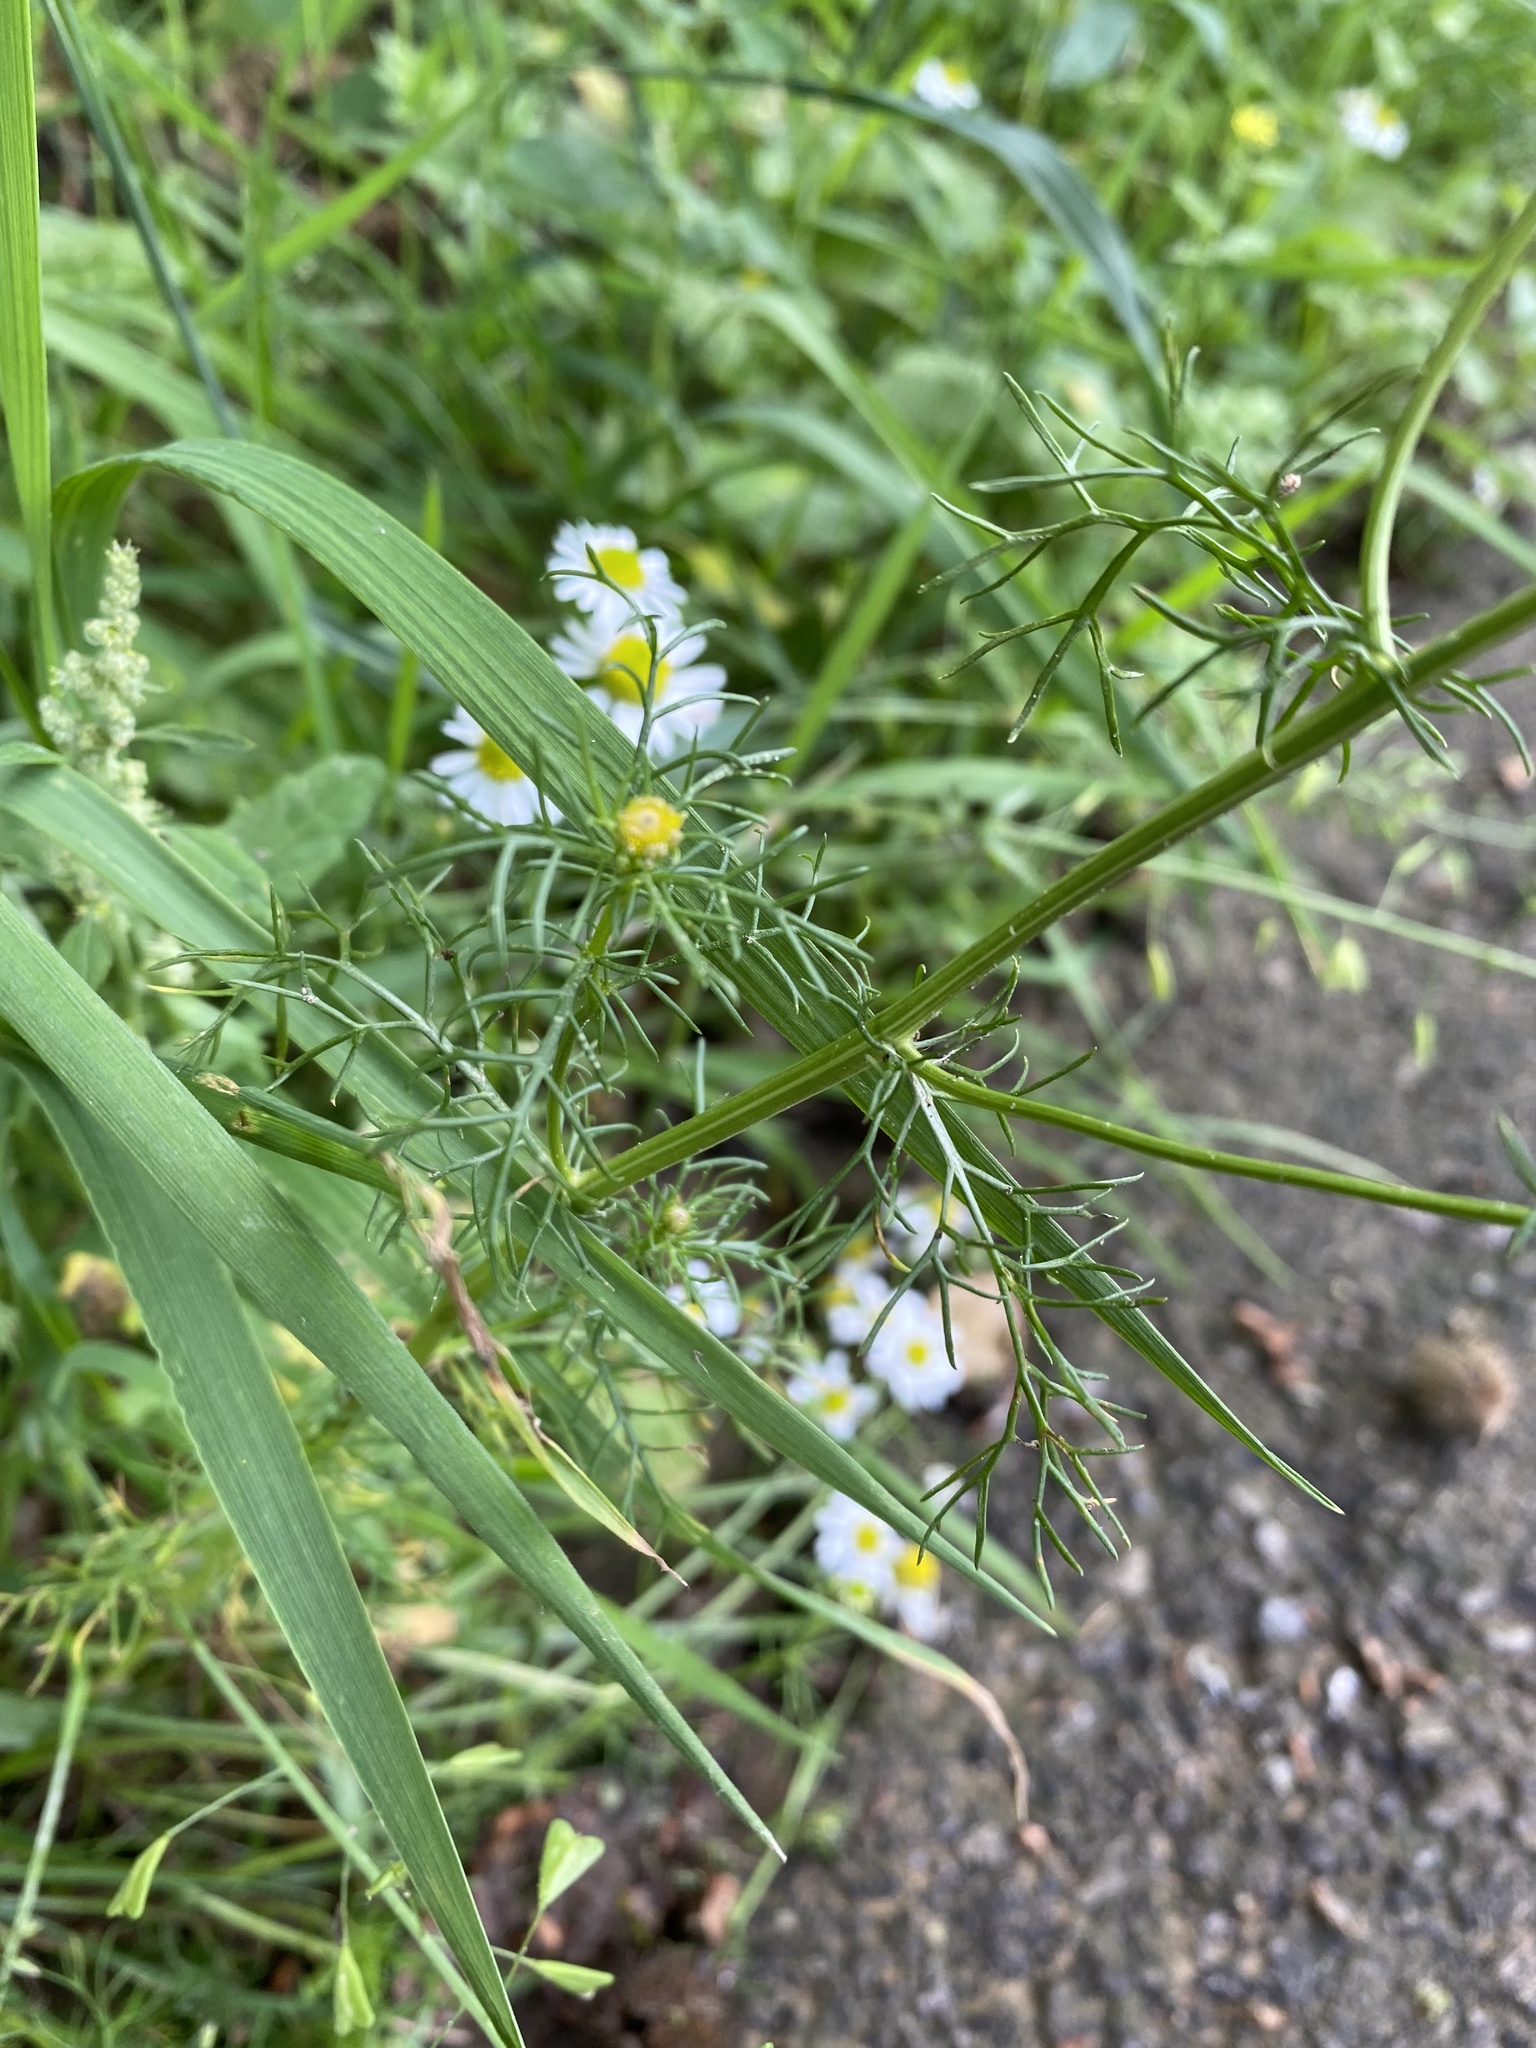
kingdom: Plantae
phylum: Tracheophyta
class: Magnoliopsida
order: Asterales
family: Asteraceae
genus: Tripleurospermum
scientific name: Tripleurospermum inodorum
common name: Scentless mayweed
